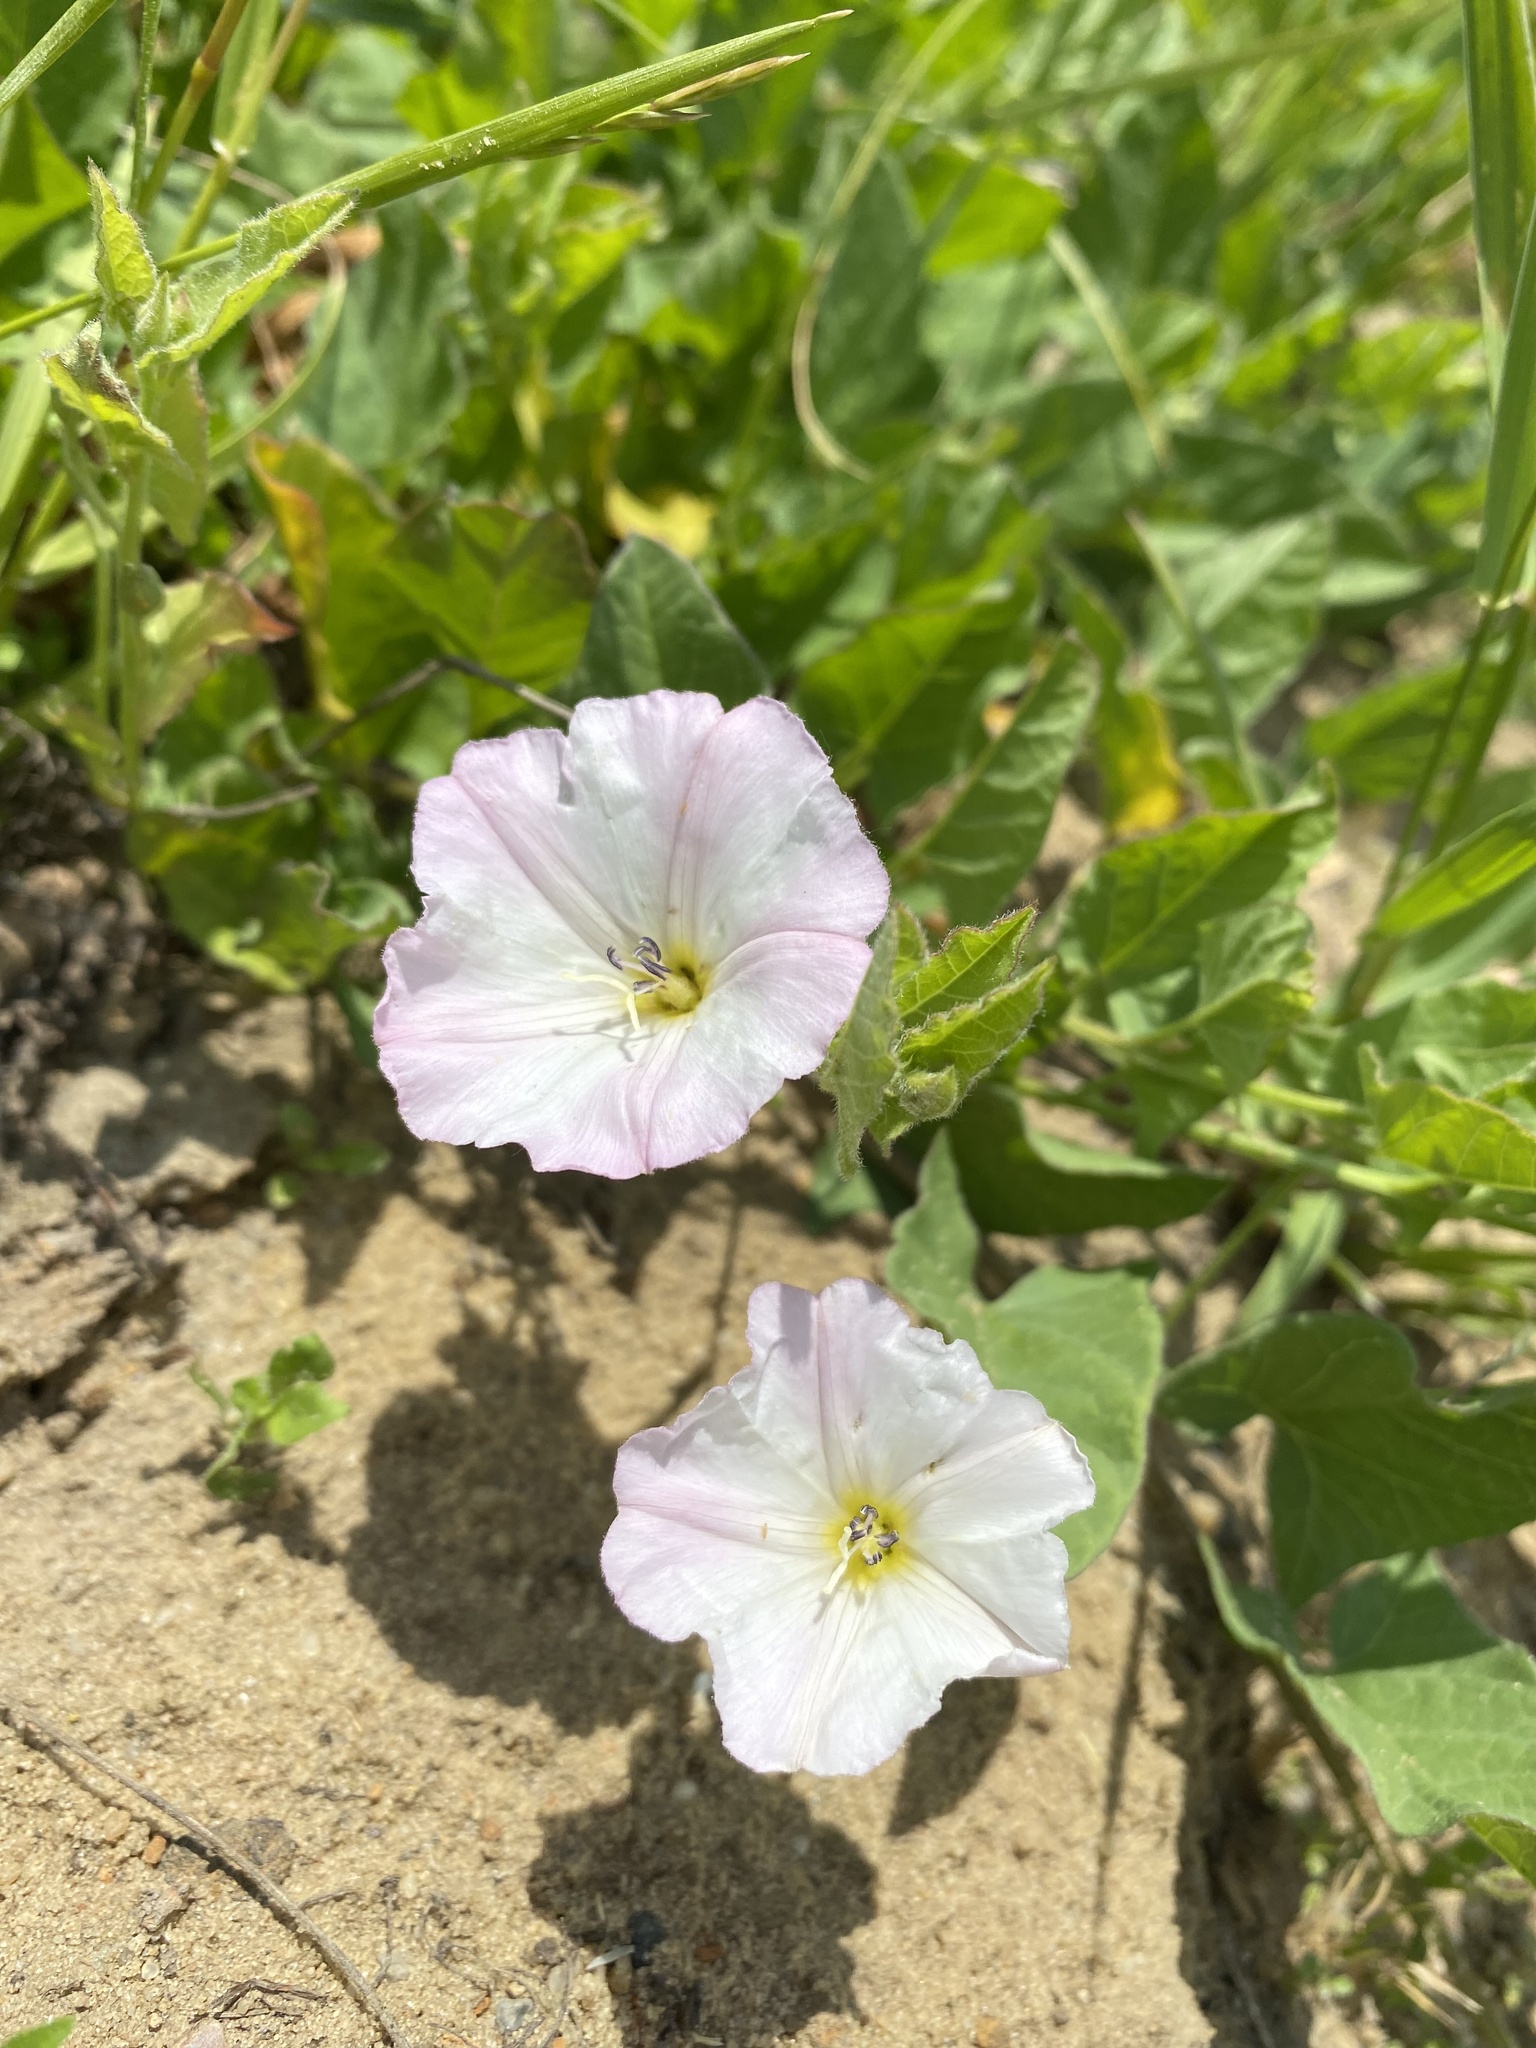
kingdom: Plantae
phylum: Tracheophyta
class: Magnoliopsida
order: Solanales
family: Convolvulaceae
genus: Convolvulus
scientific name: Convolvulus arvensis
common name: Field bindweed
